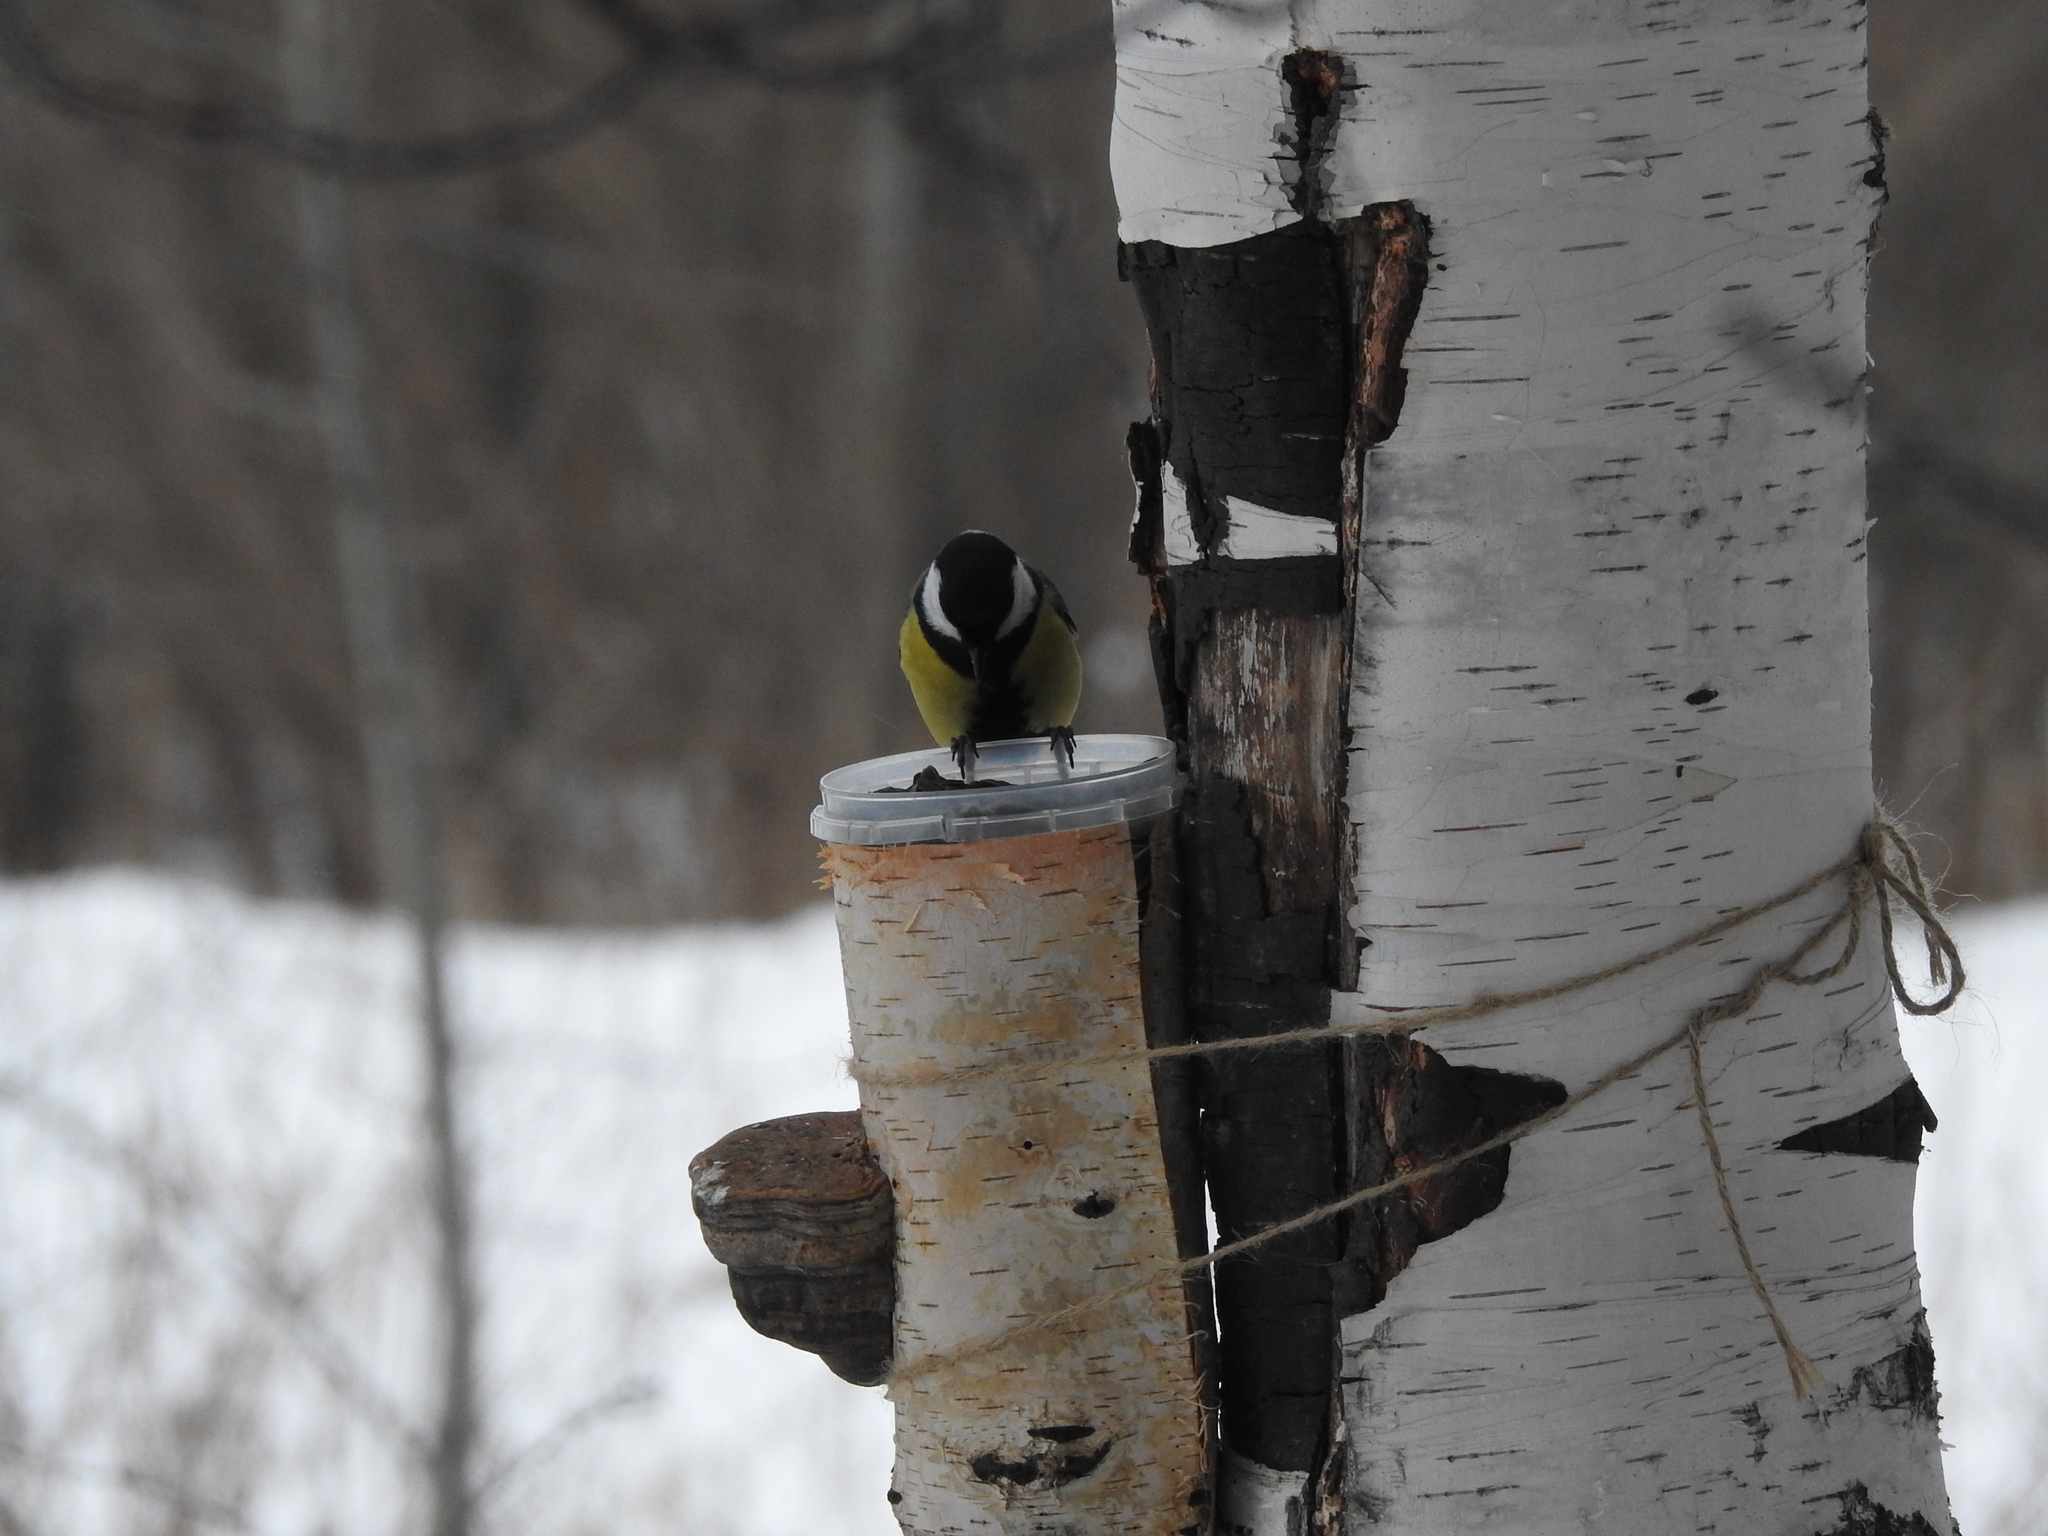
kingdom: Animalia
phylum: Chordata
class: Aves
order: Passeriformes
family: Paridae
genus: Parus
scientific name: Parus major
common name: Great tit
